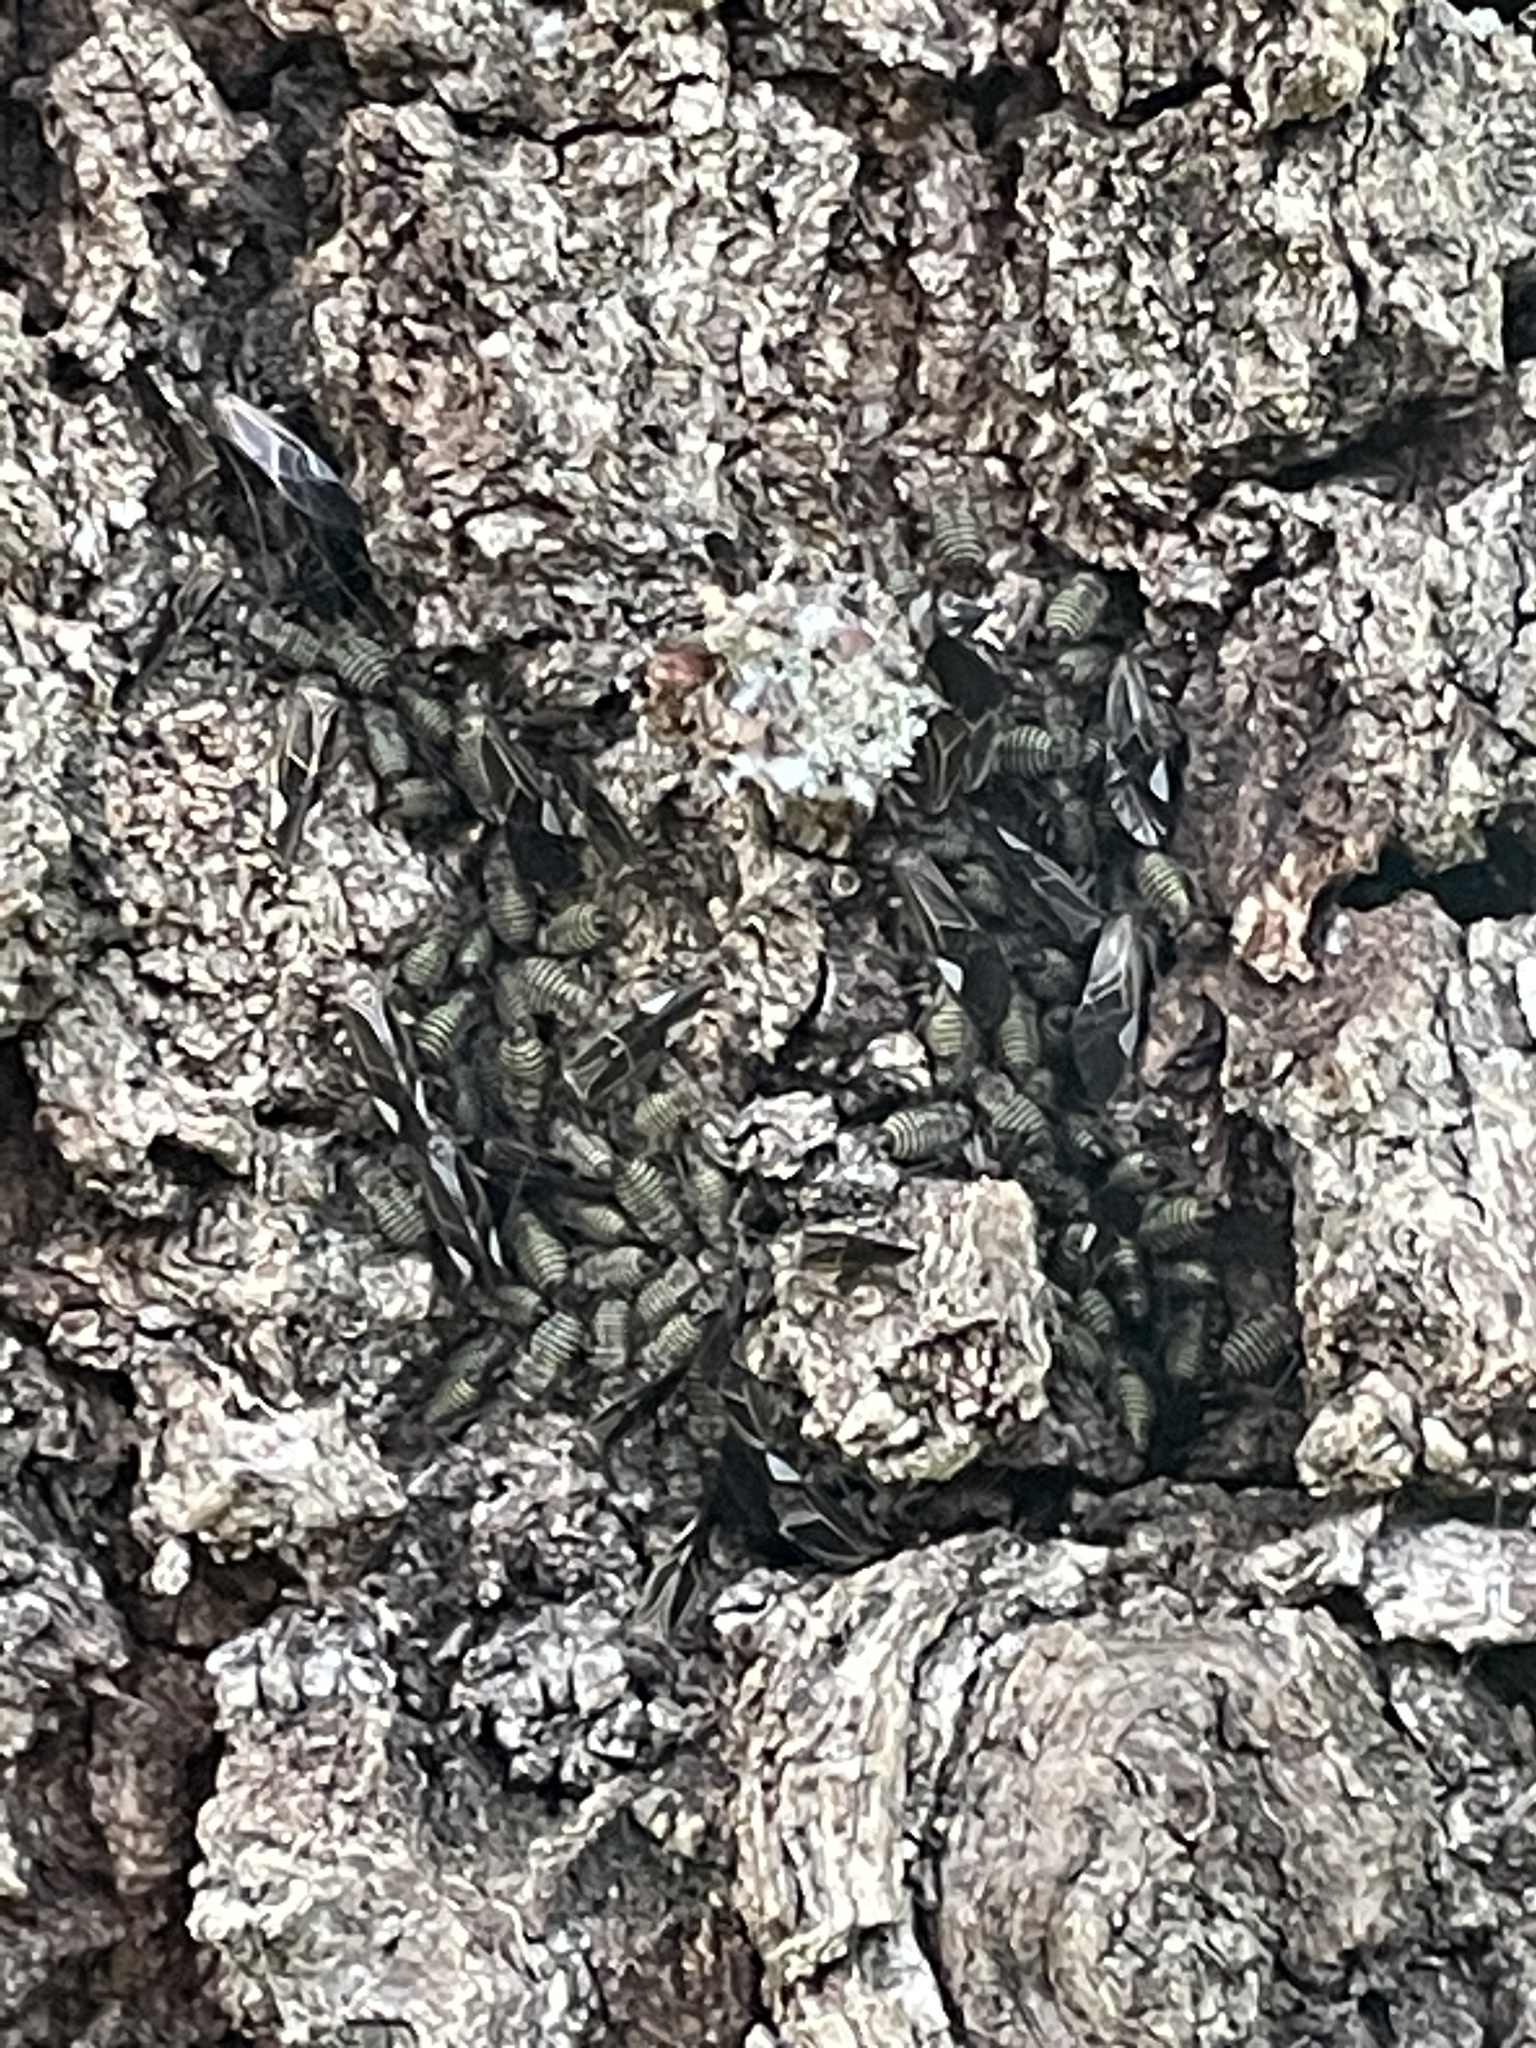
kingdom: Animalia
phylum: Arthropoda
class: Insecta
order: Psocodea
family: Psocidae
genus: Cerastipsocus
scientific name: Cerastipsocus venosus
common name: Tree cattle
